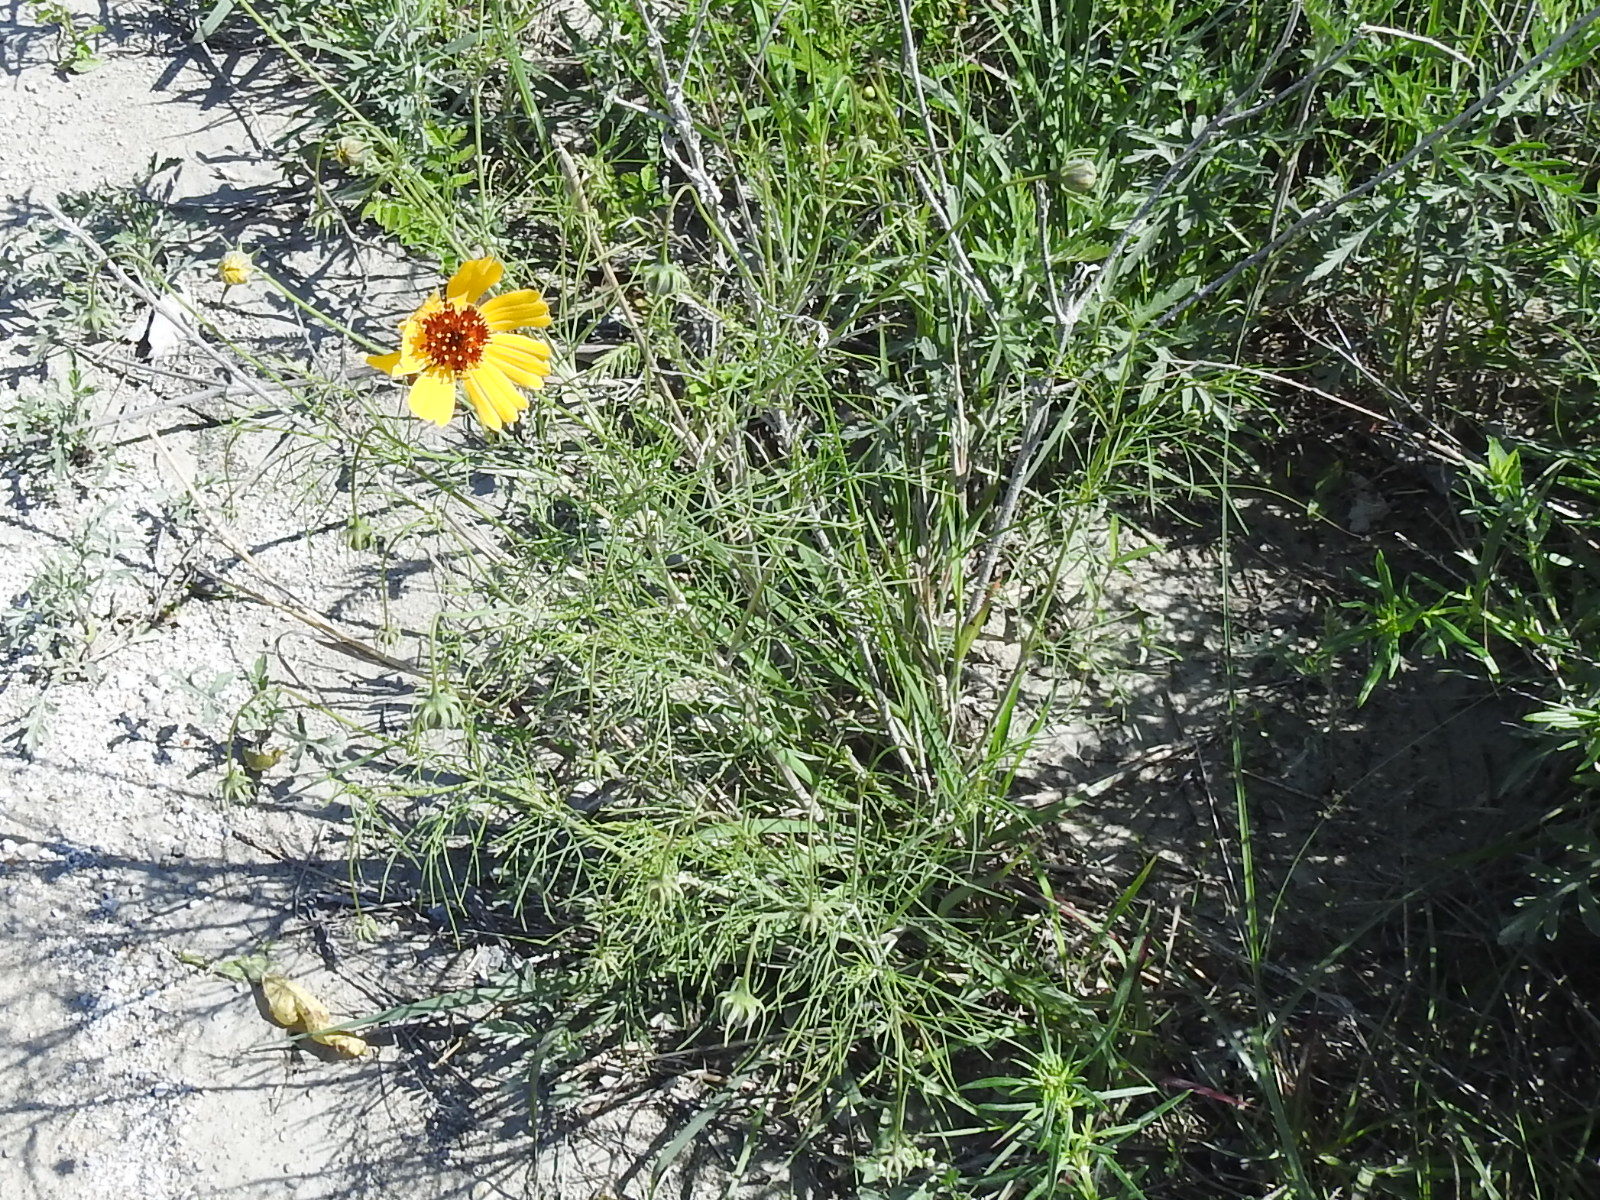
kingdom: Plantae
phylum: Tracheophyta
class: Magnoliopsida
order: Asterales
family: Asteraceae
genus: Thelesperma
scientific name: Thelesperma filifolium
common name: Stiff greenthread
